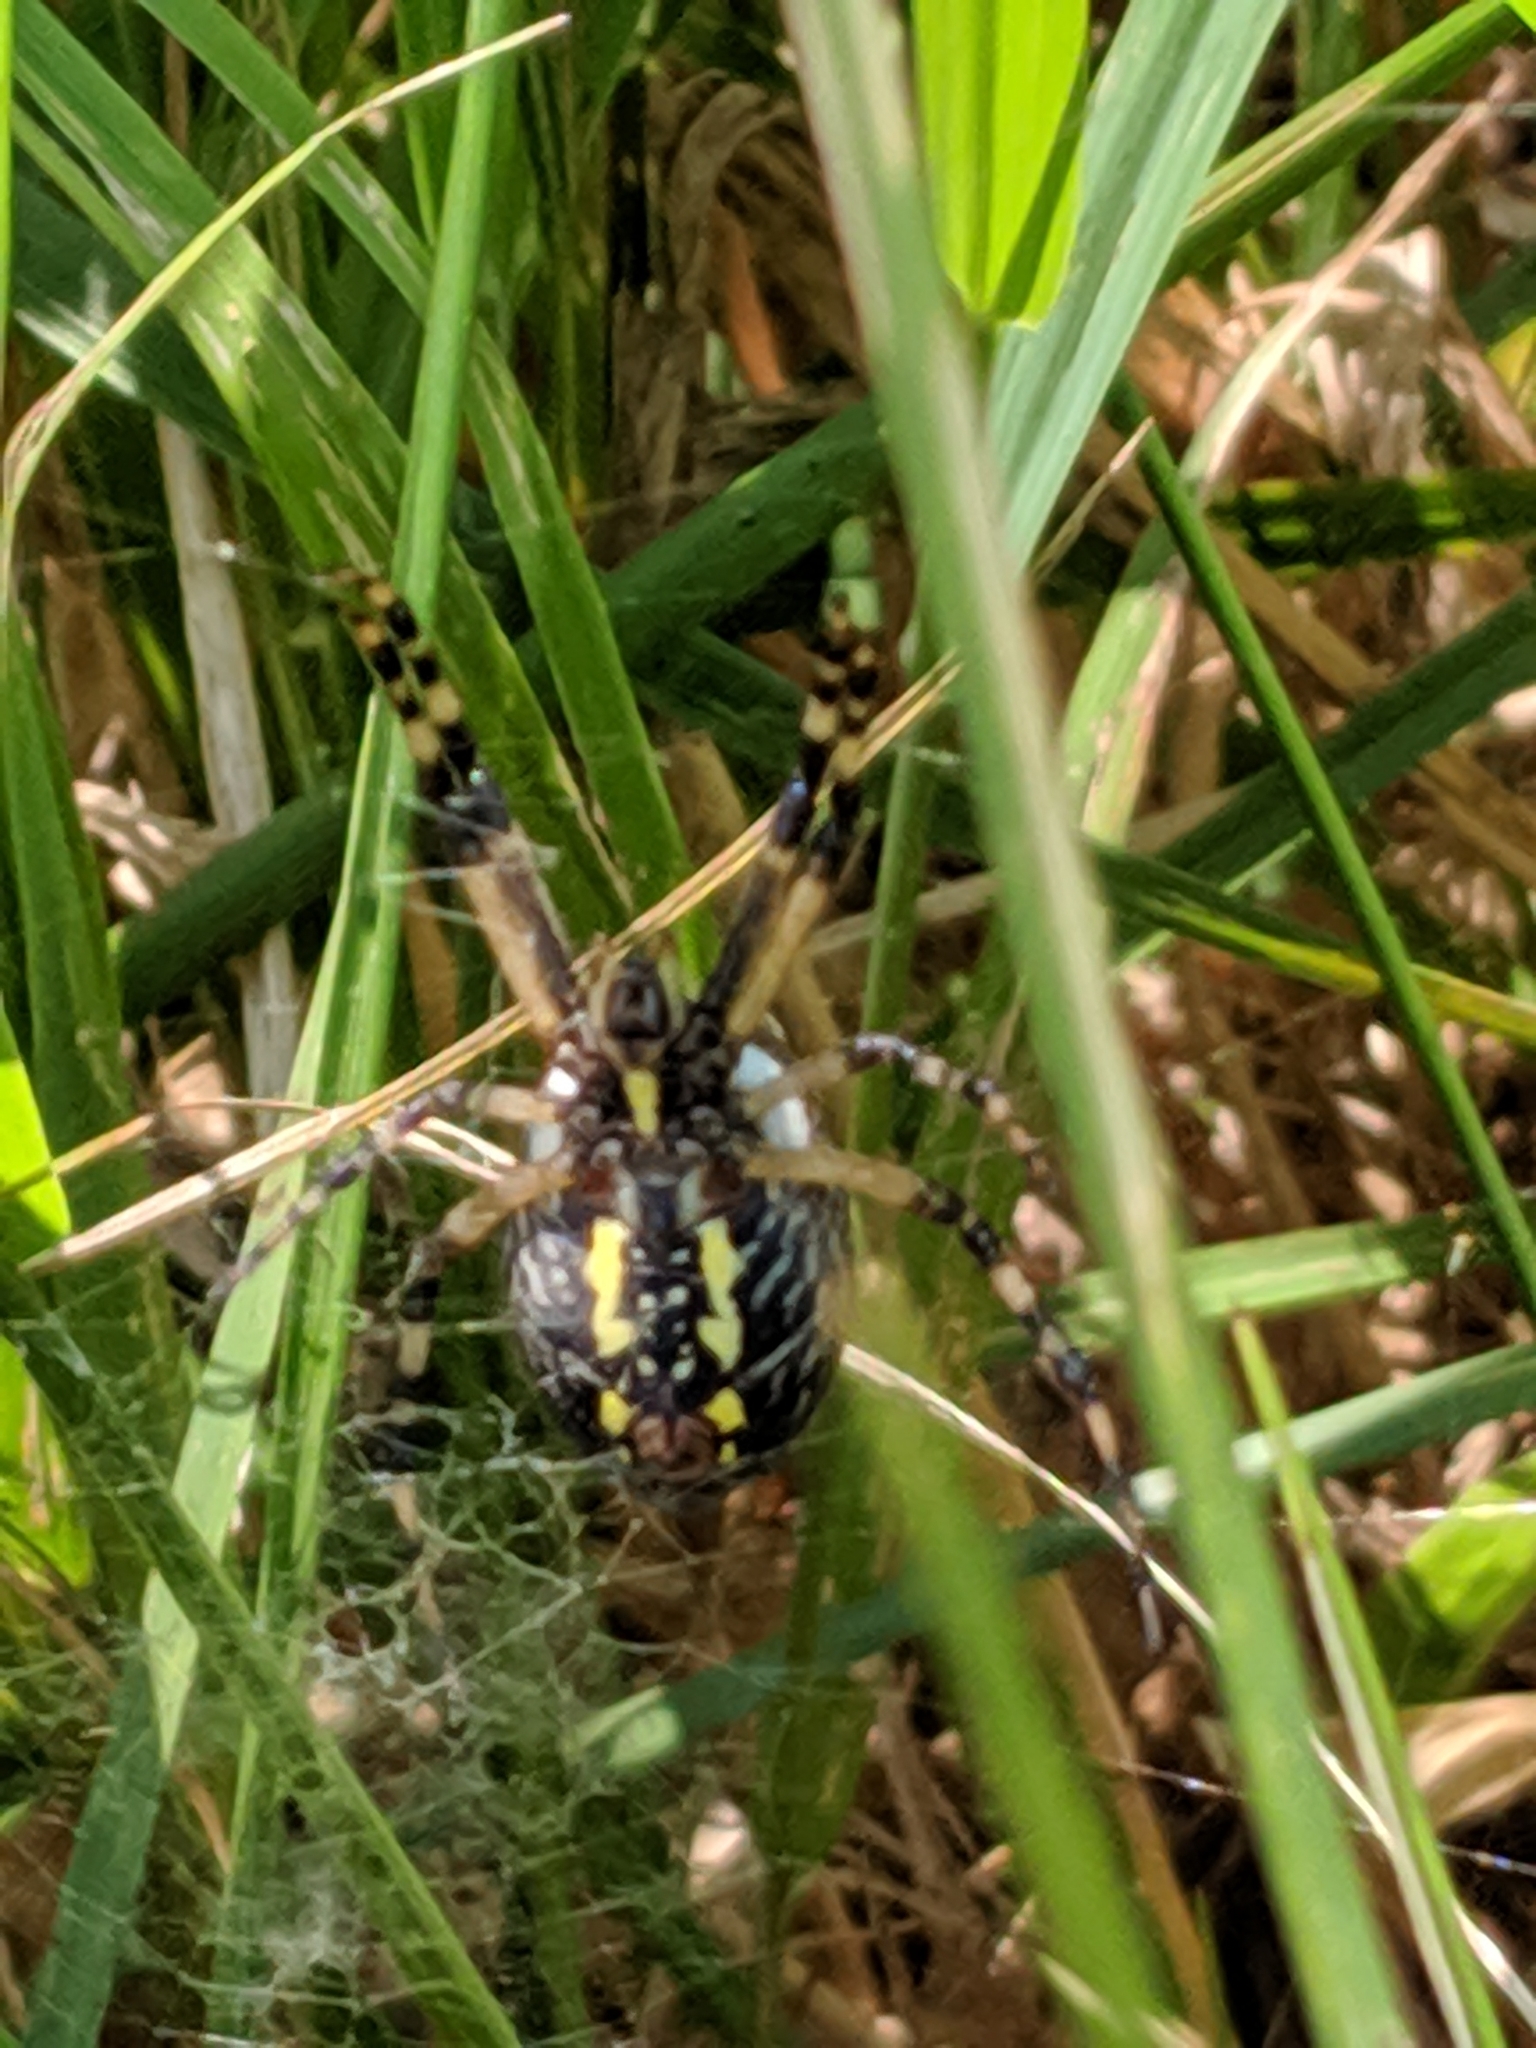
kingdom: Animalia
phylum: Arthropoda
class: Arachnida
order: Araneae
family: Araneidae
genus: Argiope
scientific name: Argiope aurantia
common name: Orb weavers
